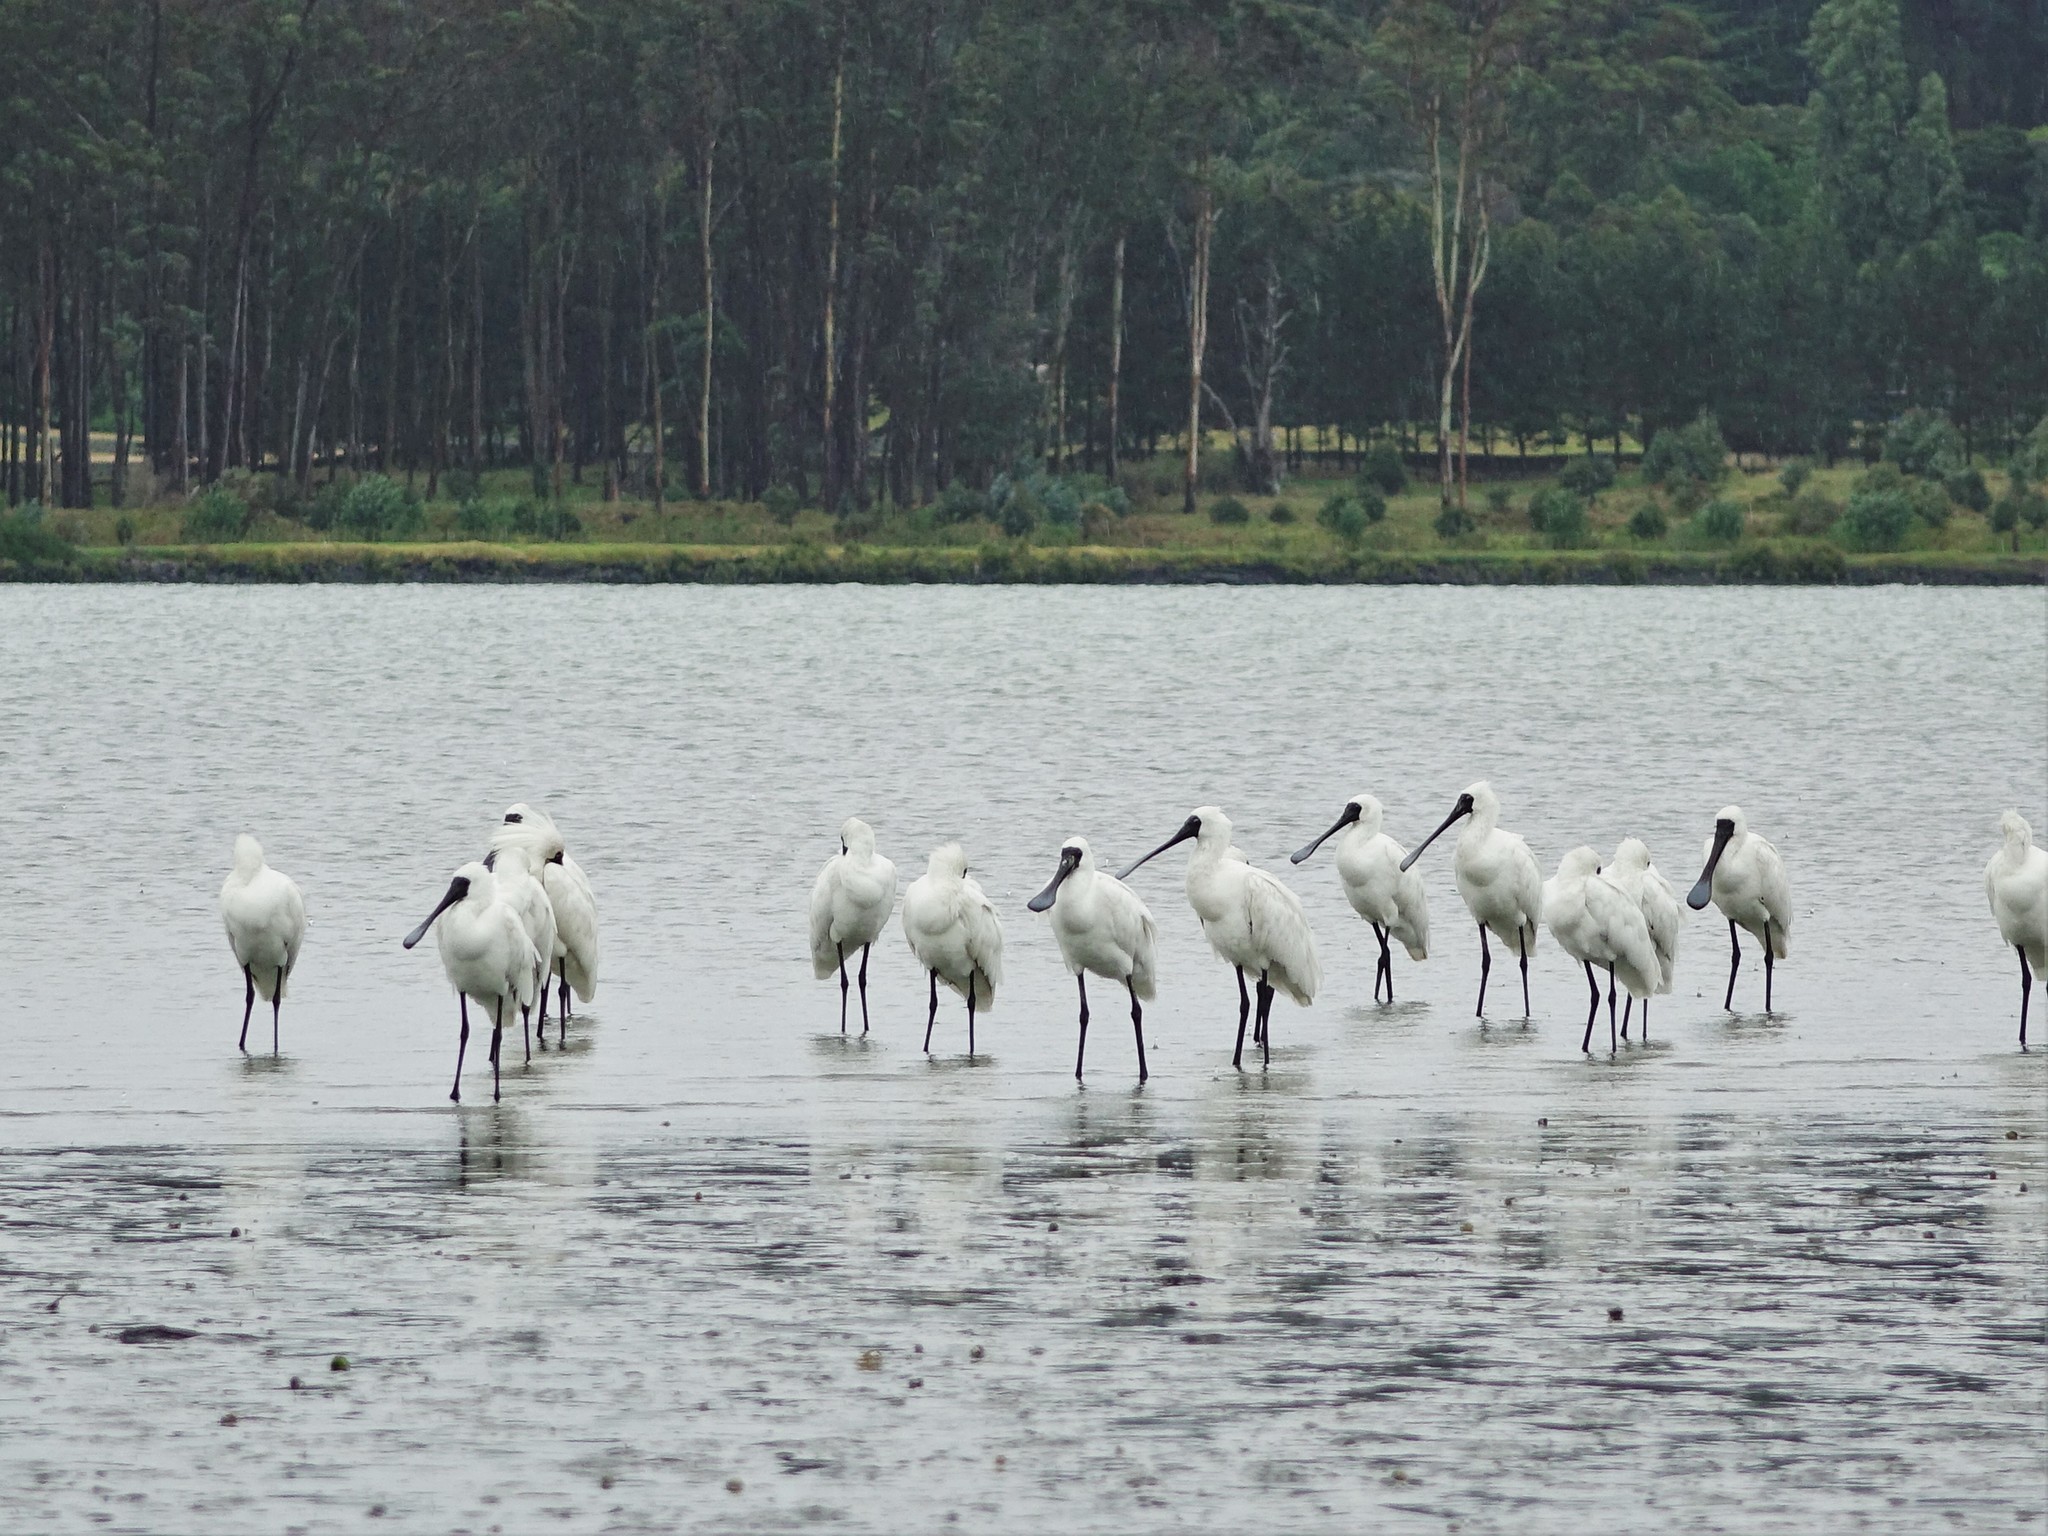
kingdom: Animalia
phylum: Chordata
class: Aves
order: Pelecaniformes
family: Threskiornithidae
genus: Platalea
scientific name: Platalea regia
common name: Royal spoonbill
